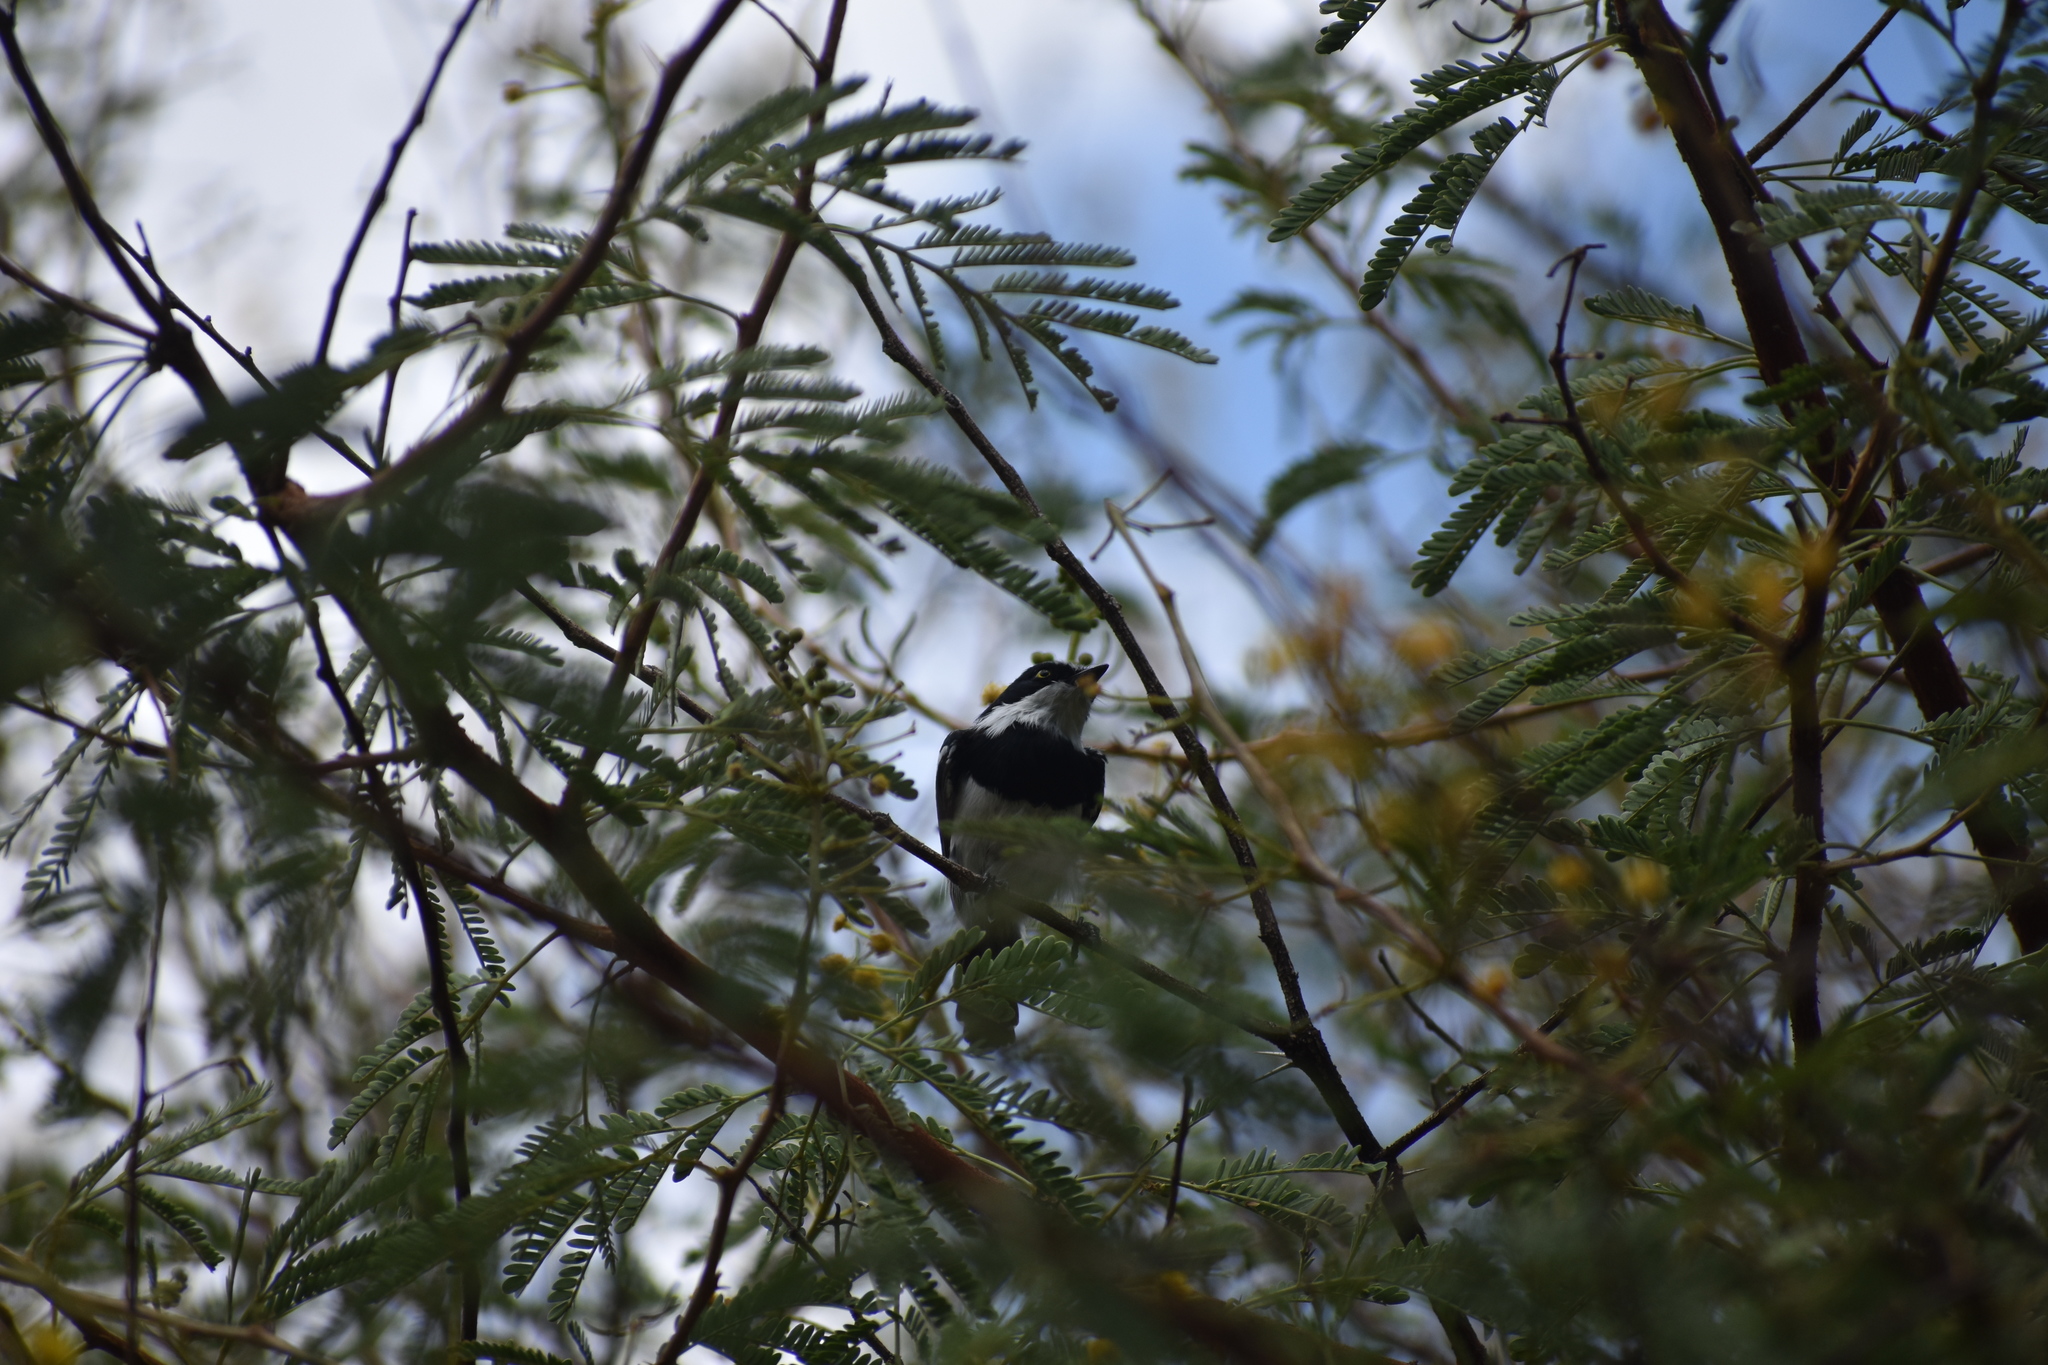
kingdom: Animalia
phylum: Chordata
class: Aves
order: Passeriformes
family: Platysteiridae
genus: Batis
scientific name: Batis pririt
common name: Pririt batis
